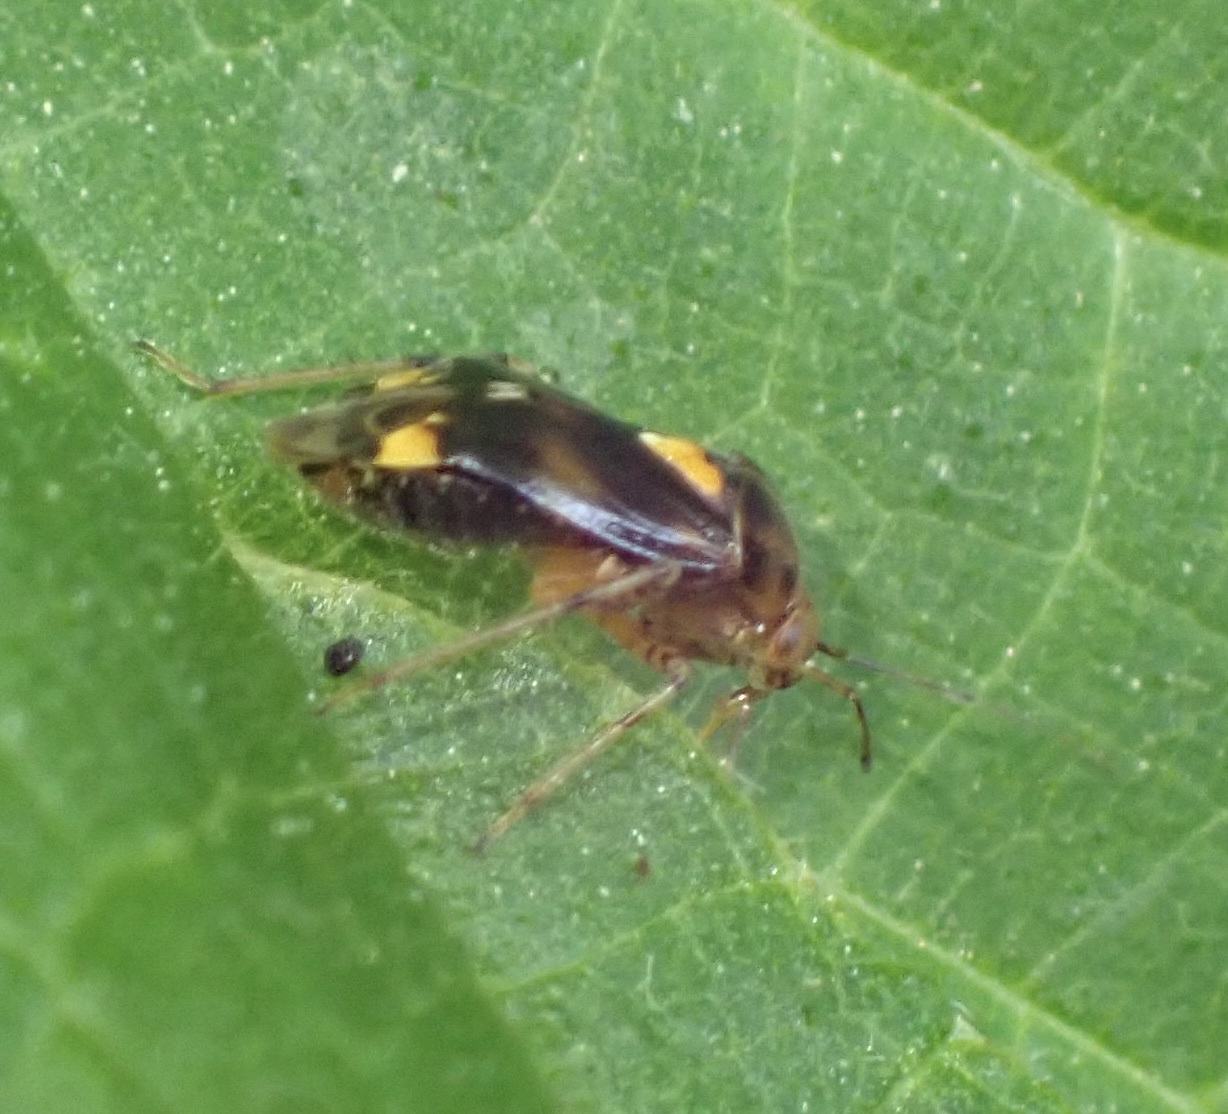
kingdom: Animalia
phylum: Arthropoda
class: Insecta
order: Hemiptera
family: Miridae
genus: Liocoris
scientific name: Liocoris tripustulatus
